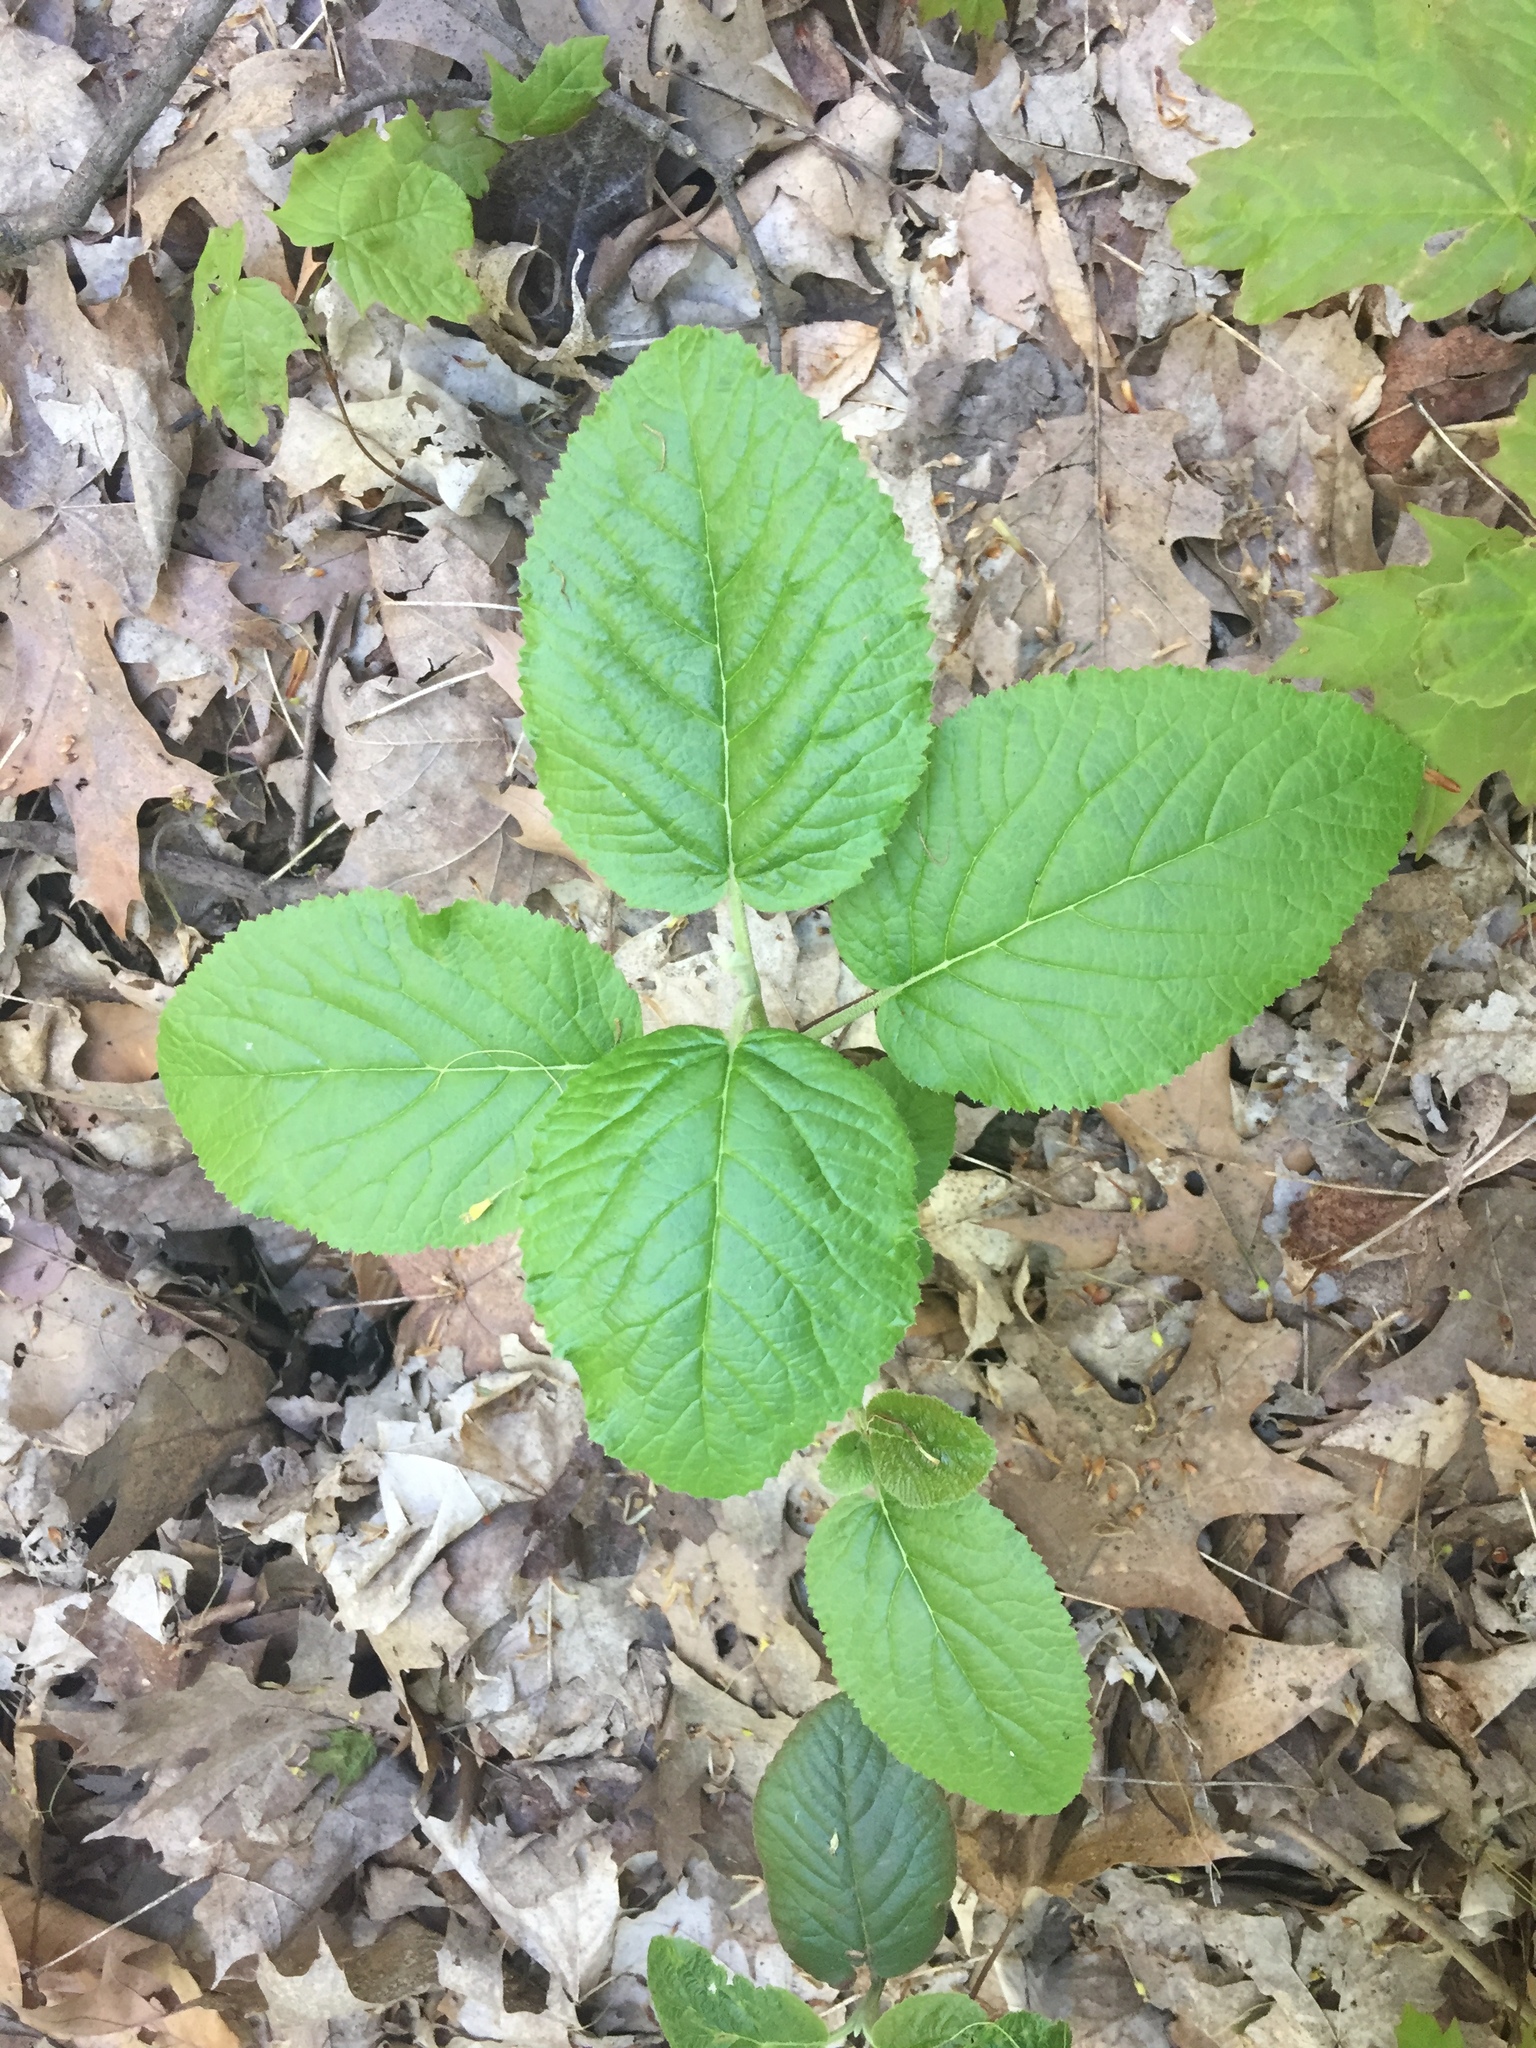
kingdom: Plantae
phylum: Tracheophyta
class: Magnoliopsida
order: Dipsacales
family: Viburnaceae
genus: Viburnum
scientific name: Viburnum lantana
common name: Wayfaring tree
